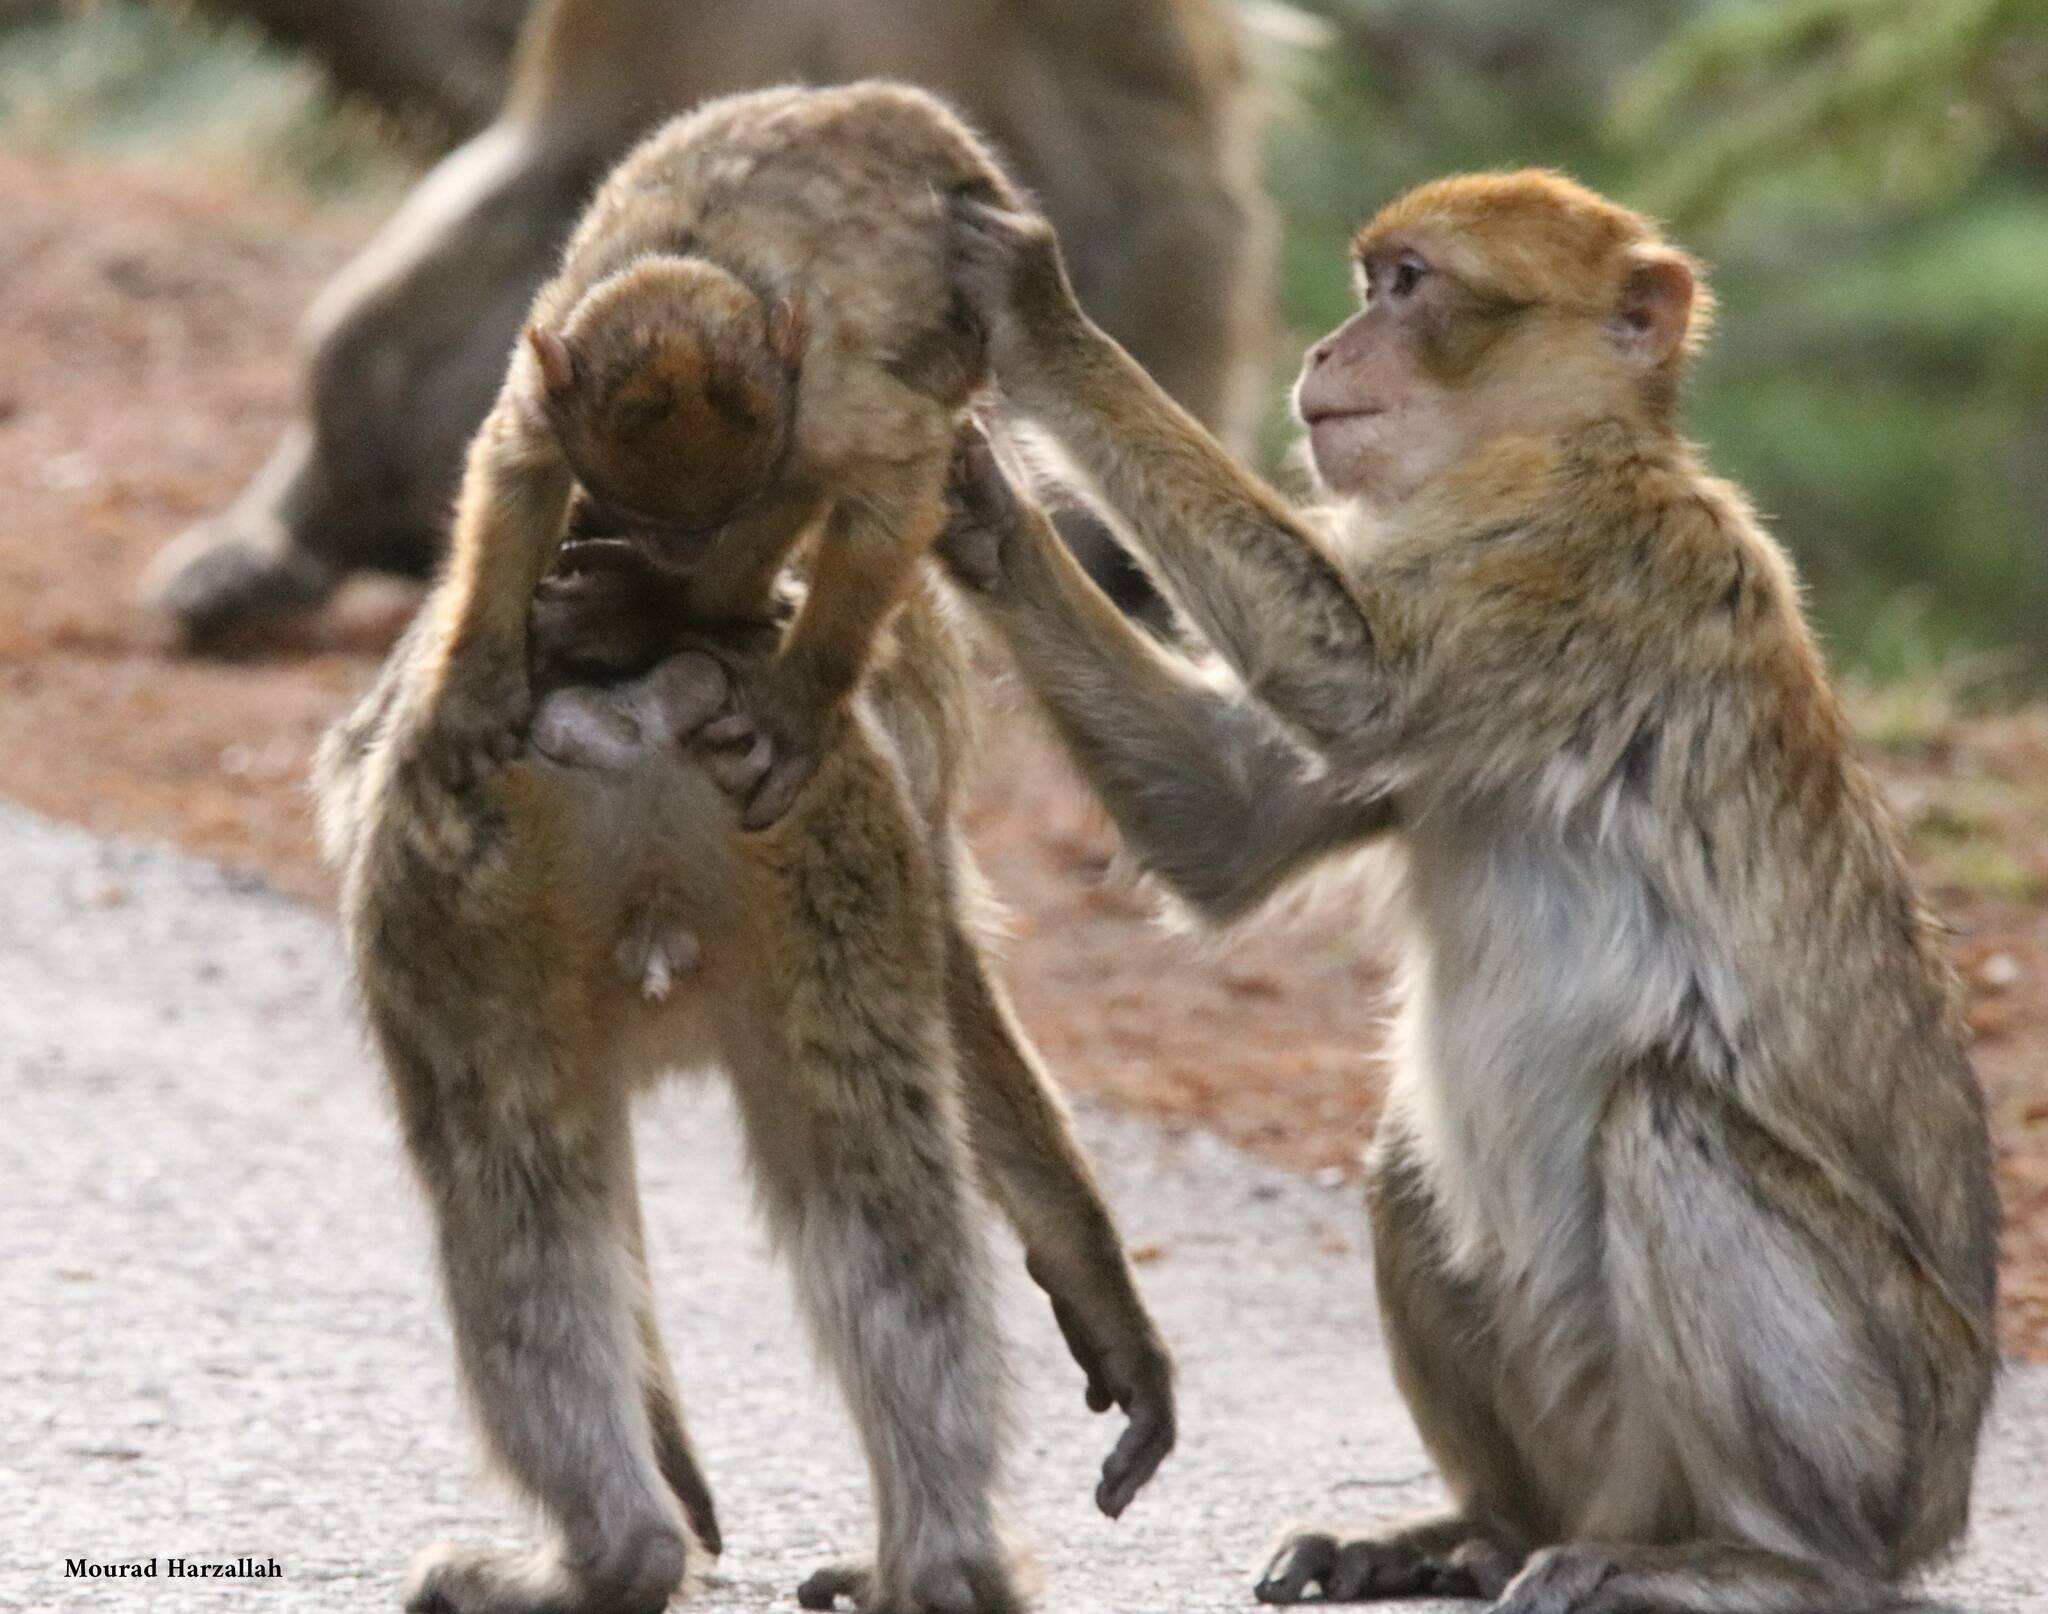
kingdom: Animalia
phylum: Chordata
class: Mammalia
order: Primates
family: Cercopithecidae
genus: Macaca
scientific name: Macaca sylvanus
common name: Barbary macaque
